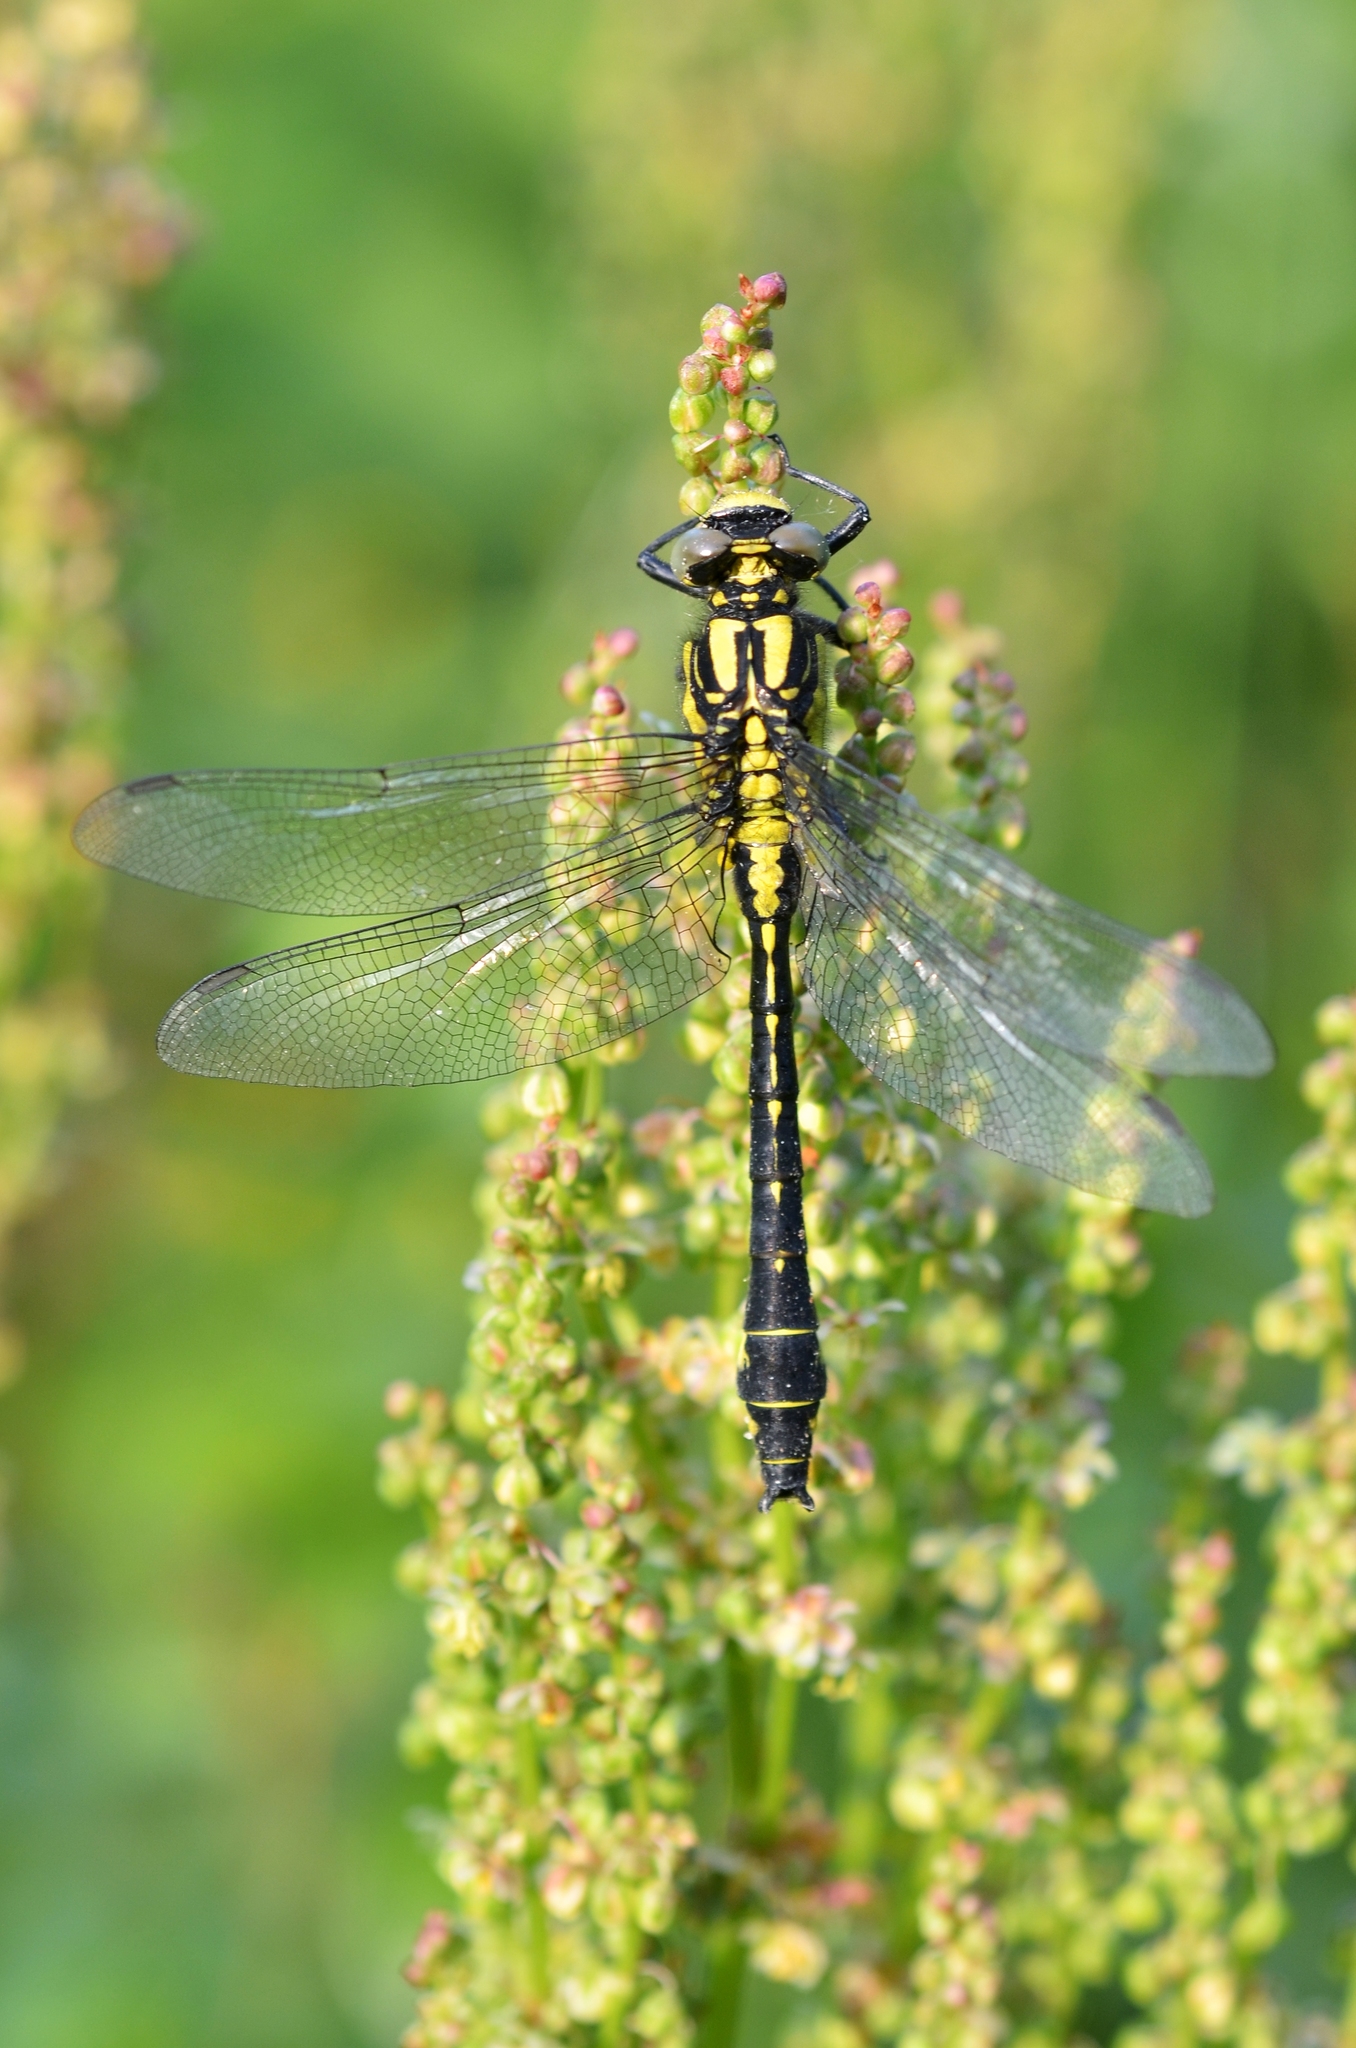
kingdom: Animalia
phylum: Arthropoda
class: Insecta
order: Odonata
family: Gomphidae
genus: Gomphus
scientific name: Gomphus vulgatissimus
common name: Club-tailed dragonfly
